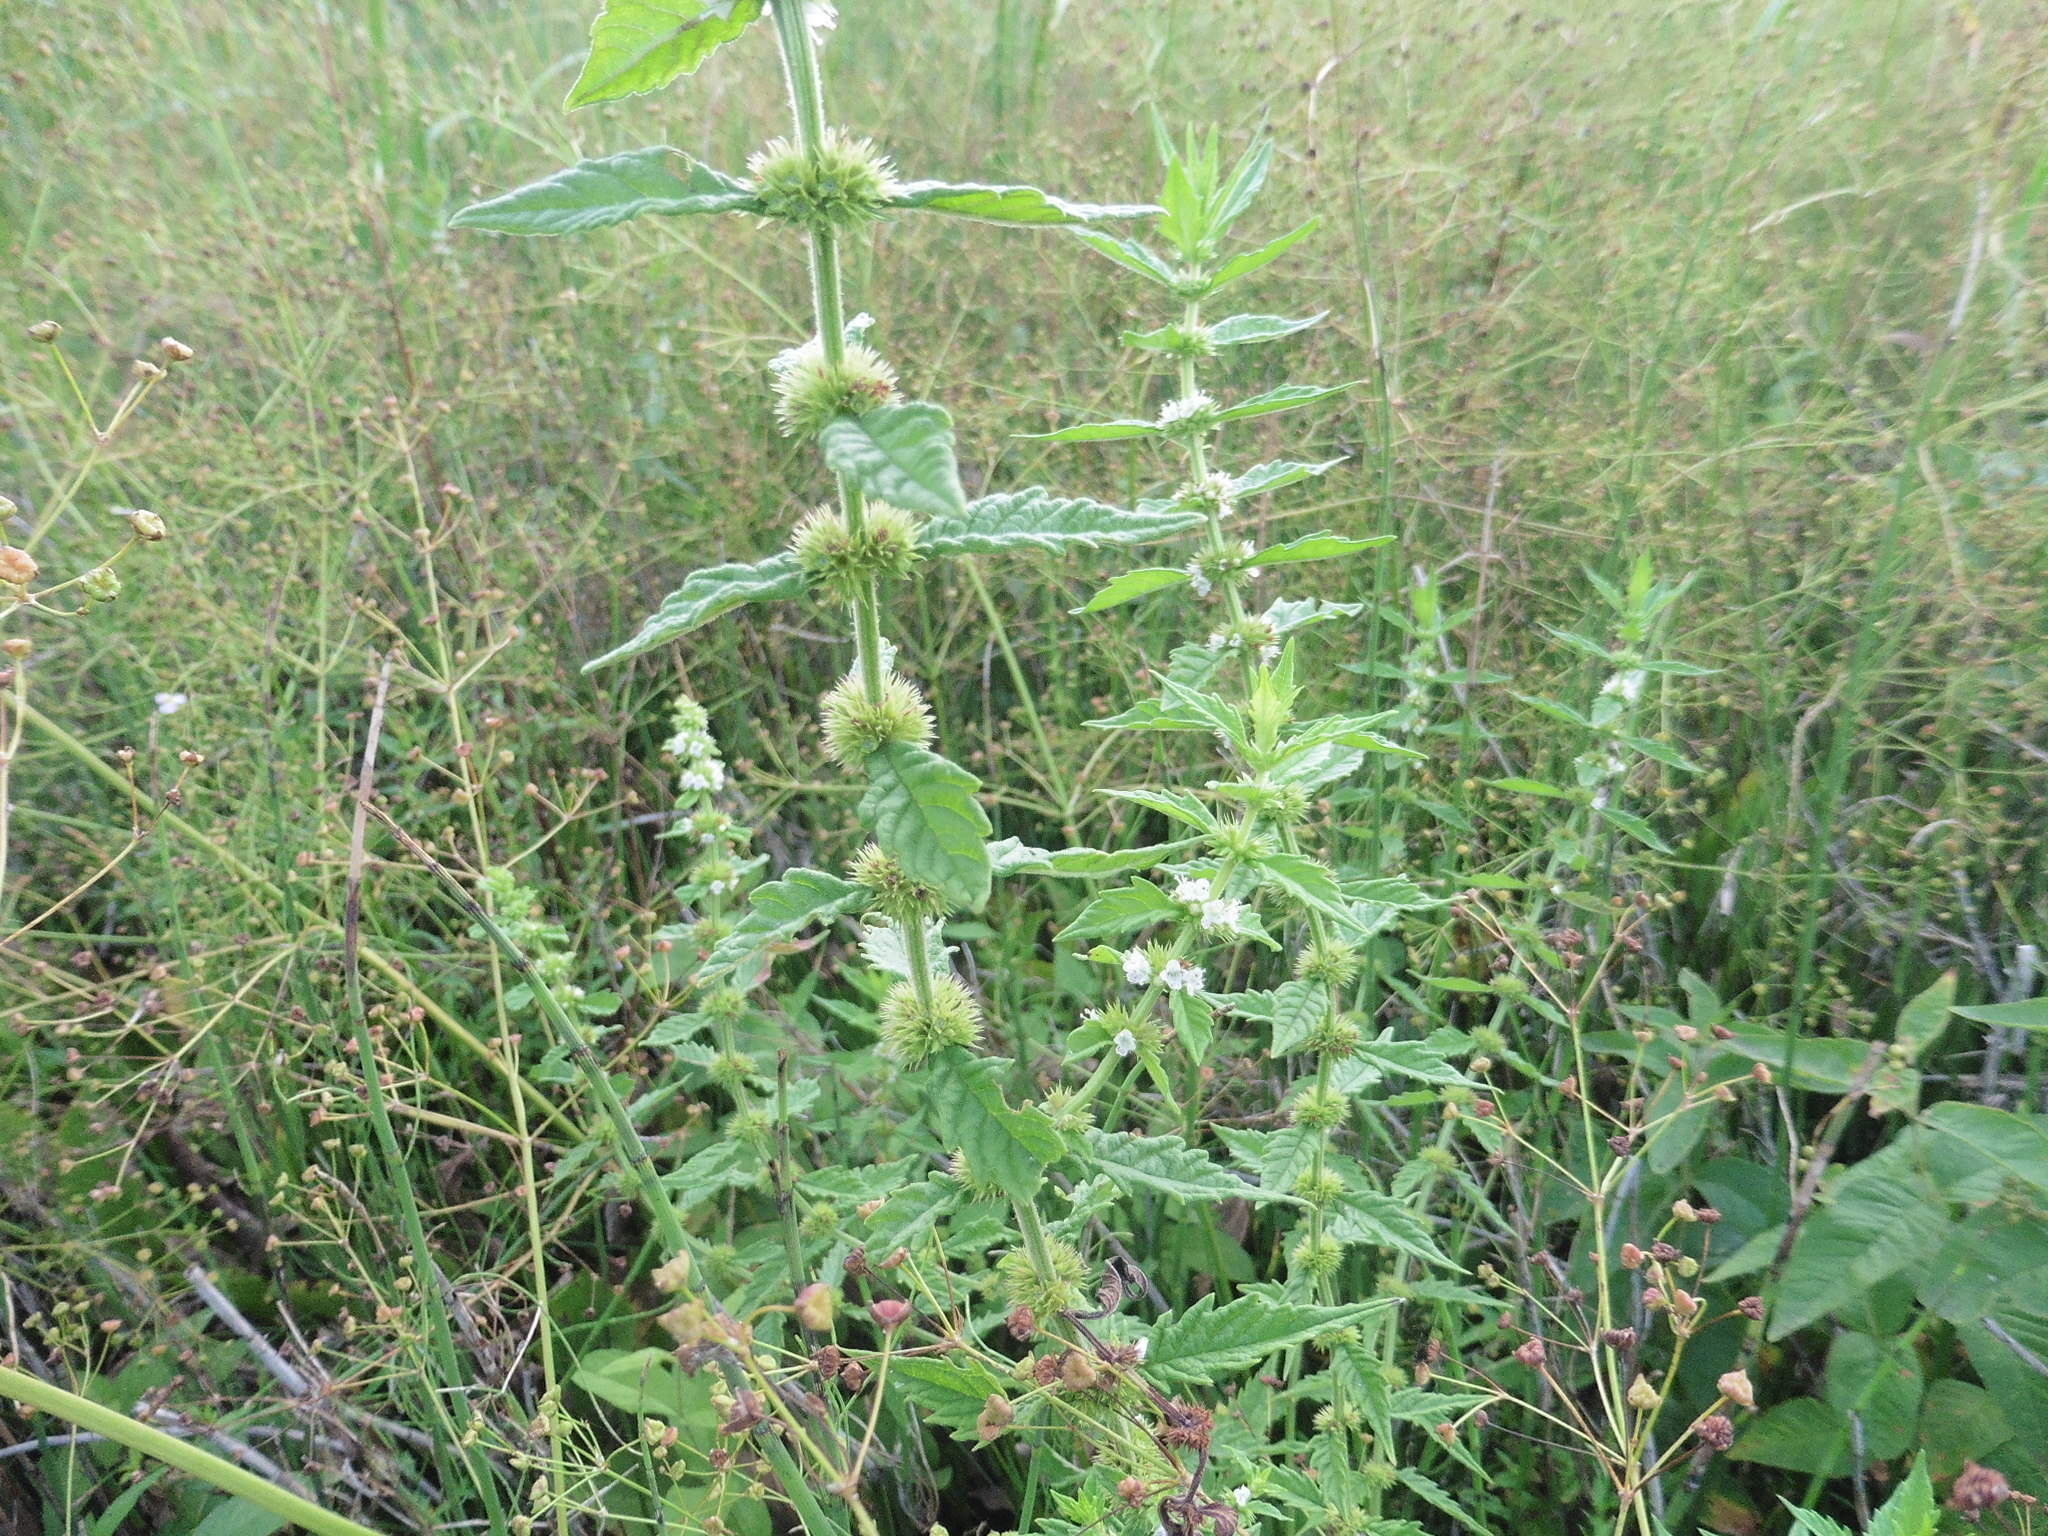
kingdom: Plantae
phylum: Tracheophyta
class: Magnoliopsida
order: Lamiales
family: Lamiaceae
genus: Lycopus
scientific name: Lycopus europaeus
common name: European bugleweed
